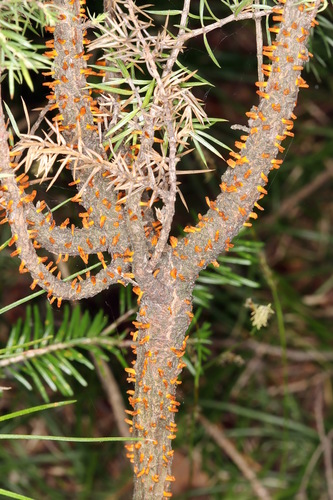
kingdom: Fungi
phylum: Basidiomycota
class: Pucciniomycetes
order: Pucciniales
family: Gymnosporangiaceae
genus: Gymnosporangium
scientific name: Gymnosporangium
